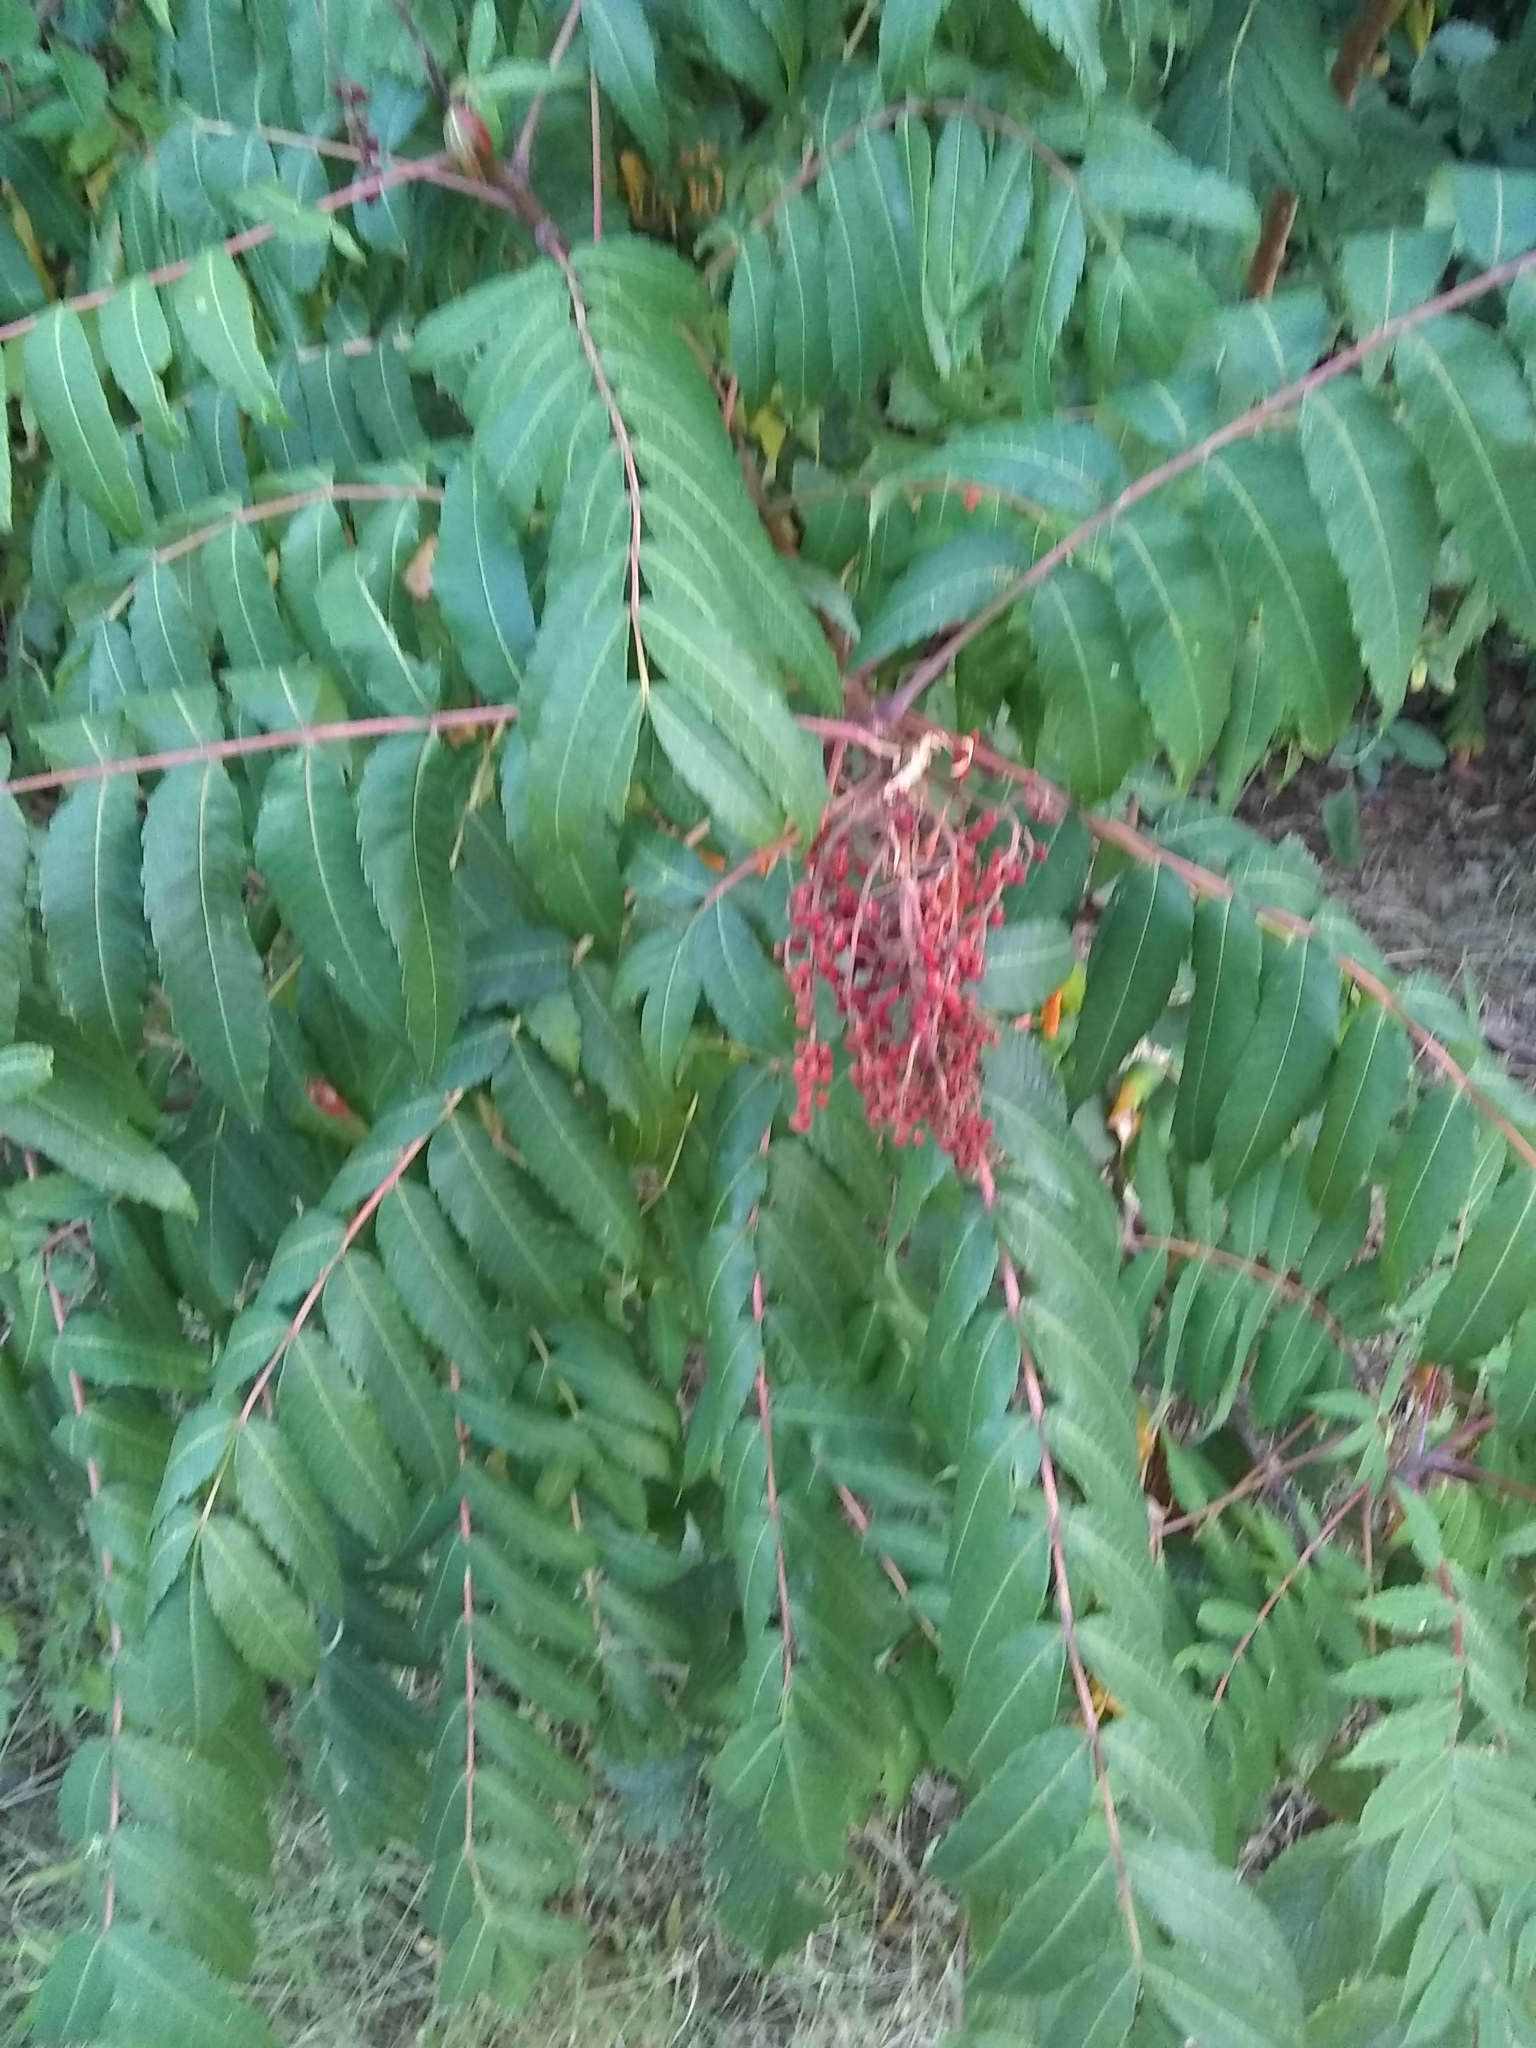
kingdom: Plantae
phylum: Tracheophyta
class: Magnoliopsida
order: Sapindales
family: Anacardiaceae
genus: Rhus
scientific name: Rhus glabra
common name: Scarlet sumac
